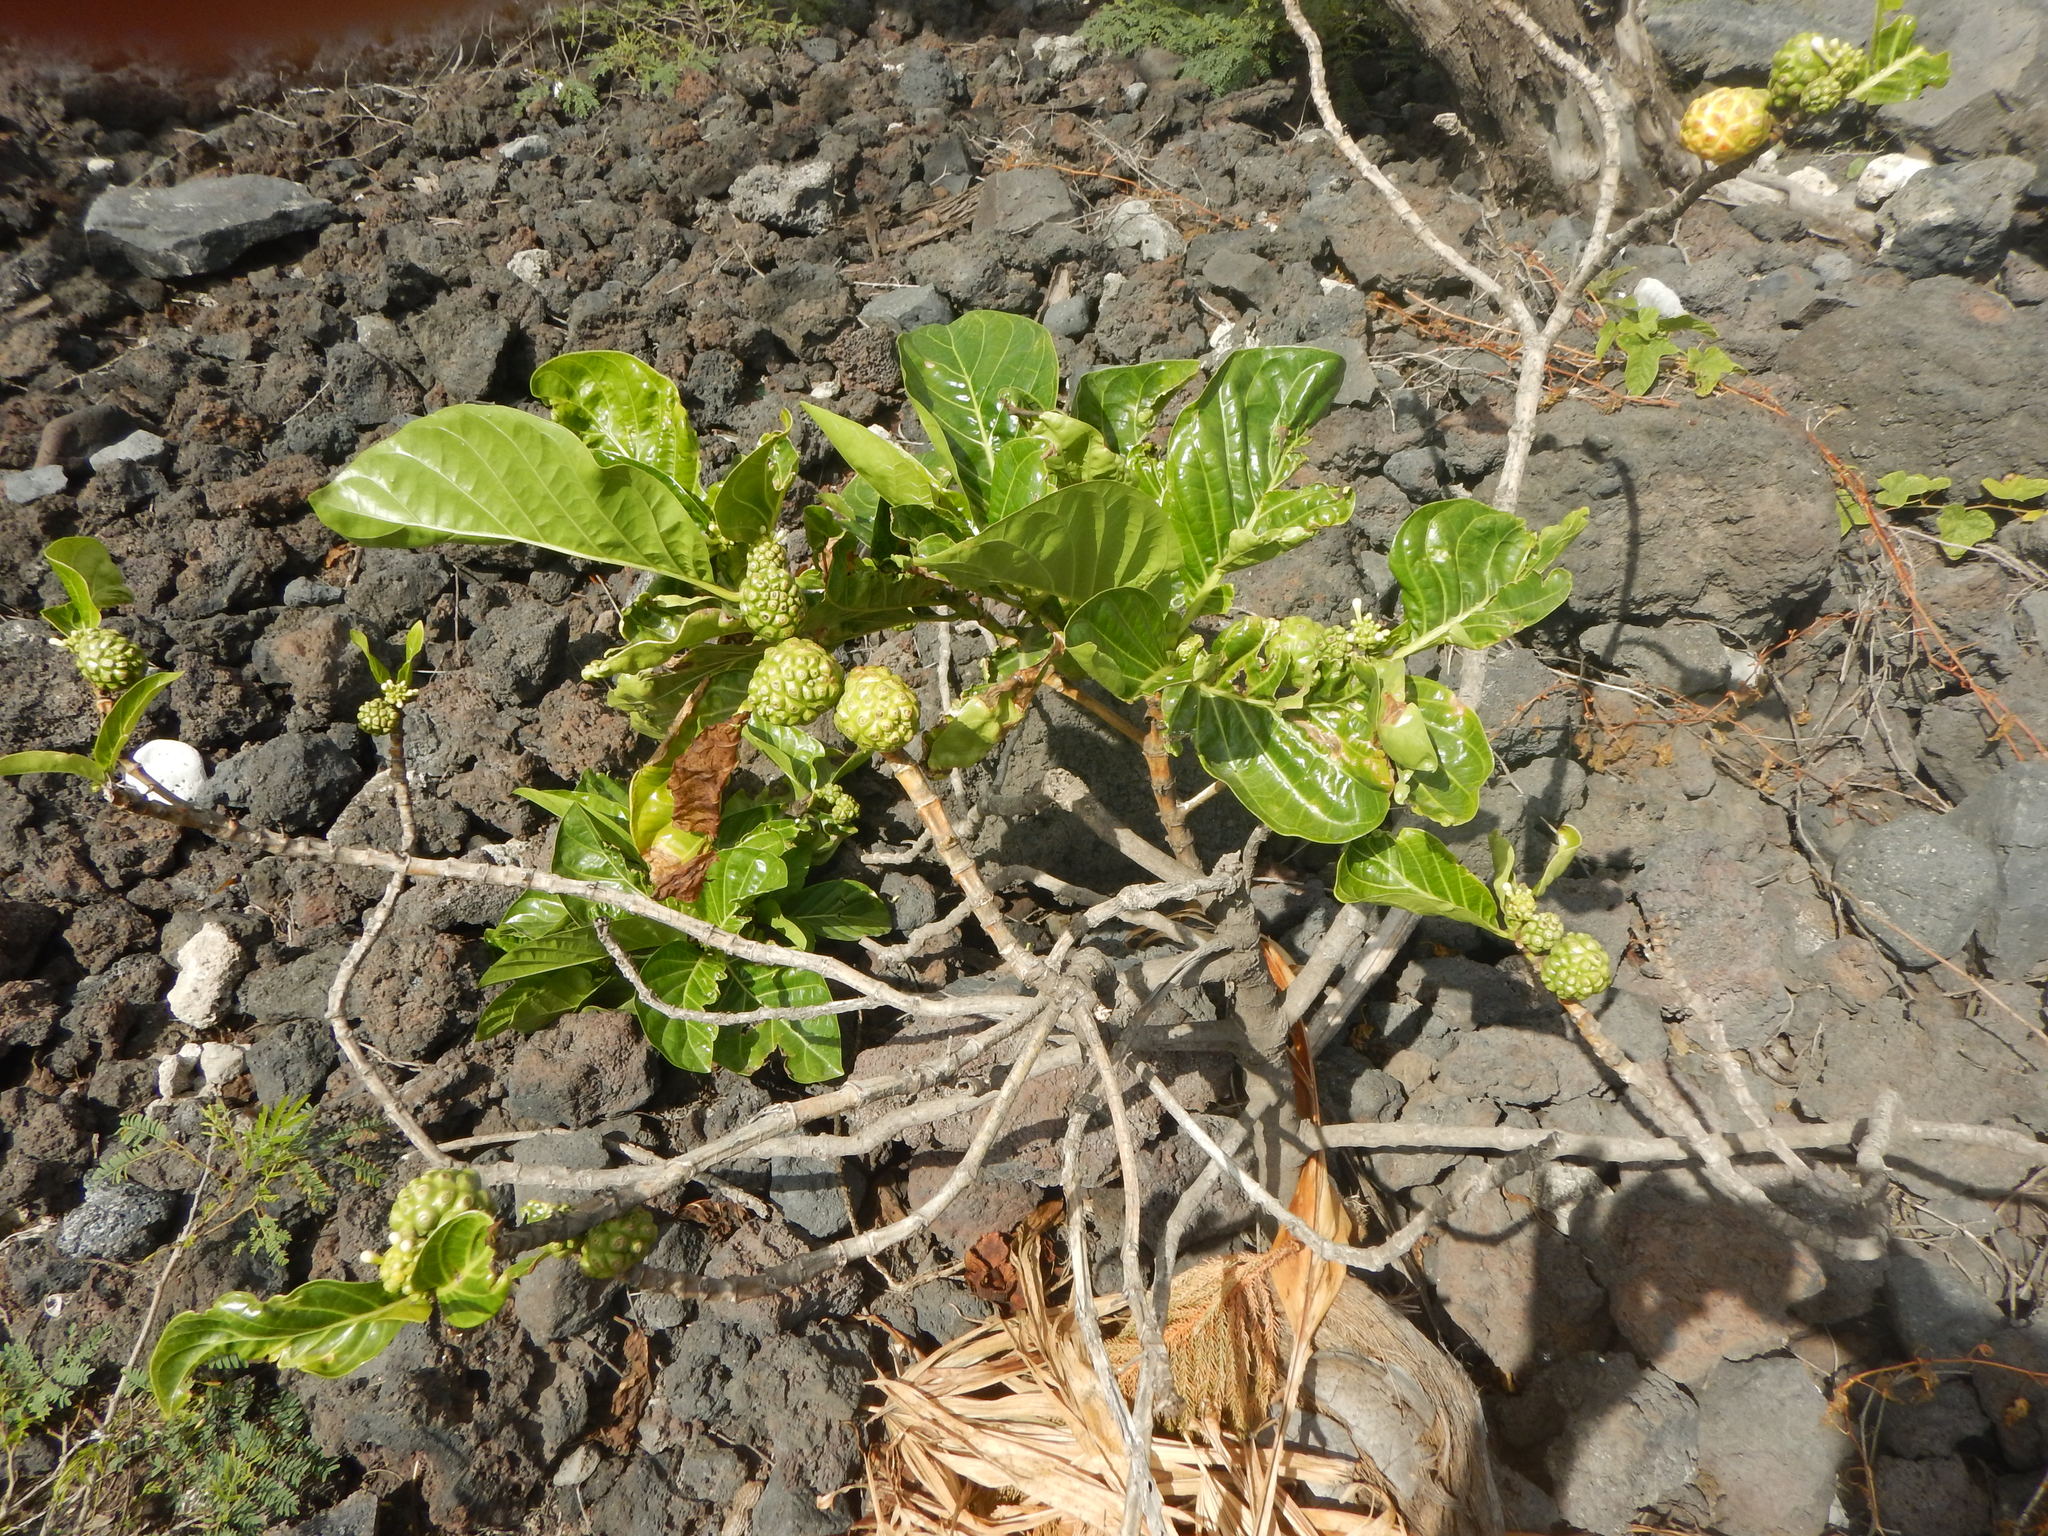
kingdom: Plantae
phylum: Tracheophyta
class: Magnoliopsida
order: Gentianales
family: Rubiaceae
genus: Morinda
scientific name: Morinda citrifolia
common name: Indian-mulberry
